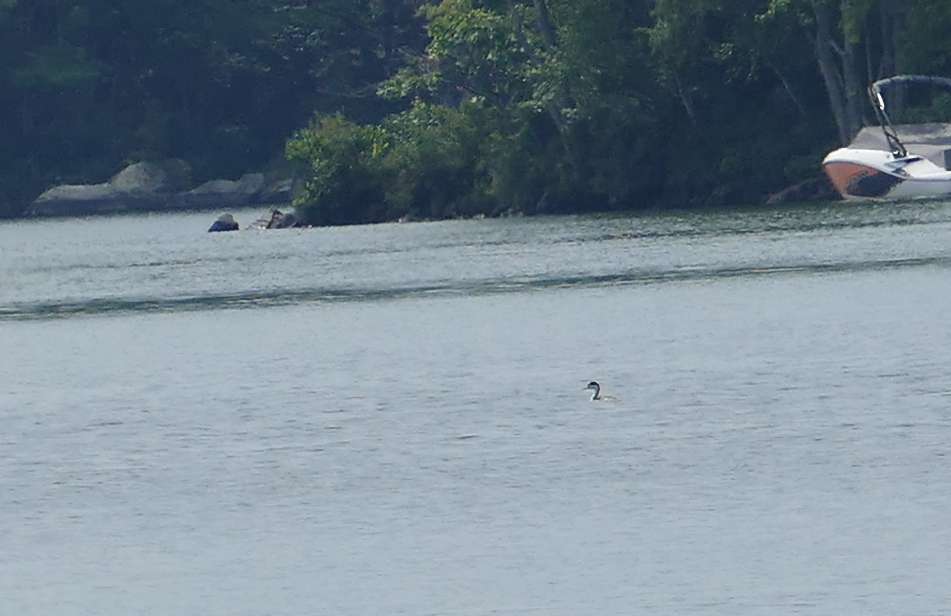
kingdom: Animalia
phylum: Chordata
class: Aves
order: Podicipediformes
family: Podicipedidae
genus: Aechmophorus
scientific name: Aechmophorus clarkii
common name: Clark's grebe
